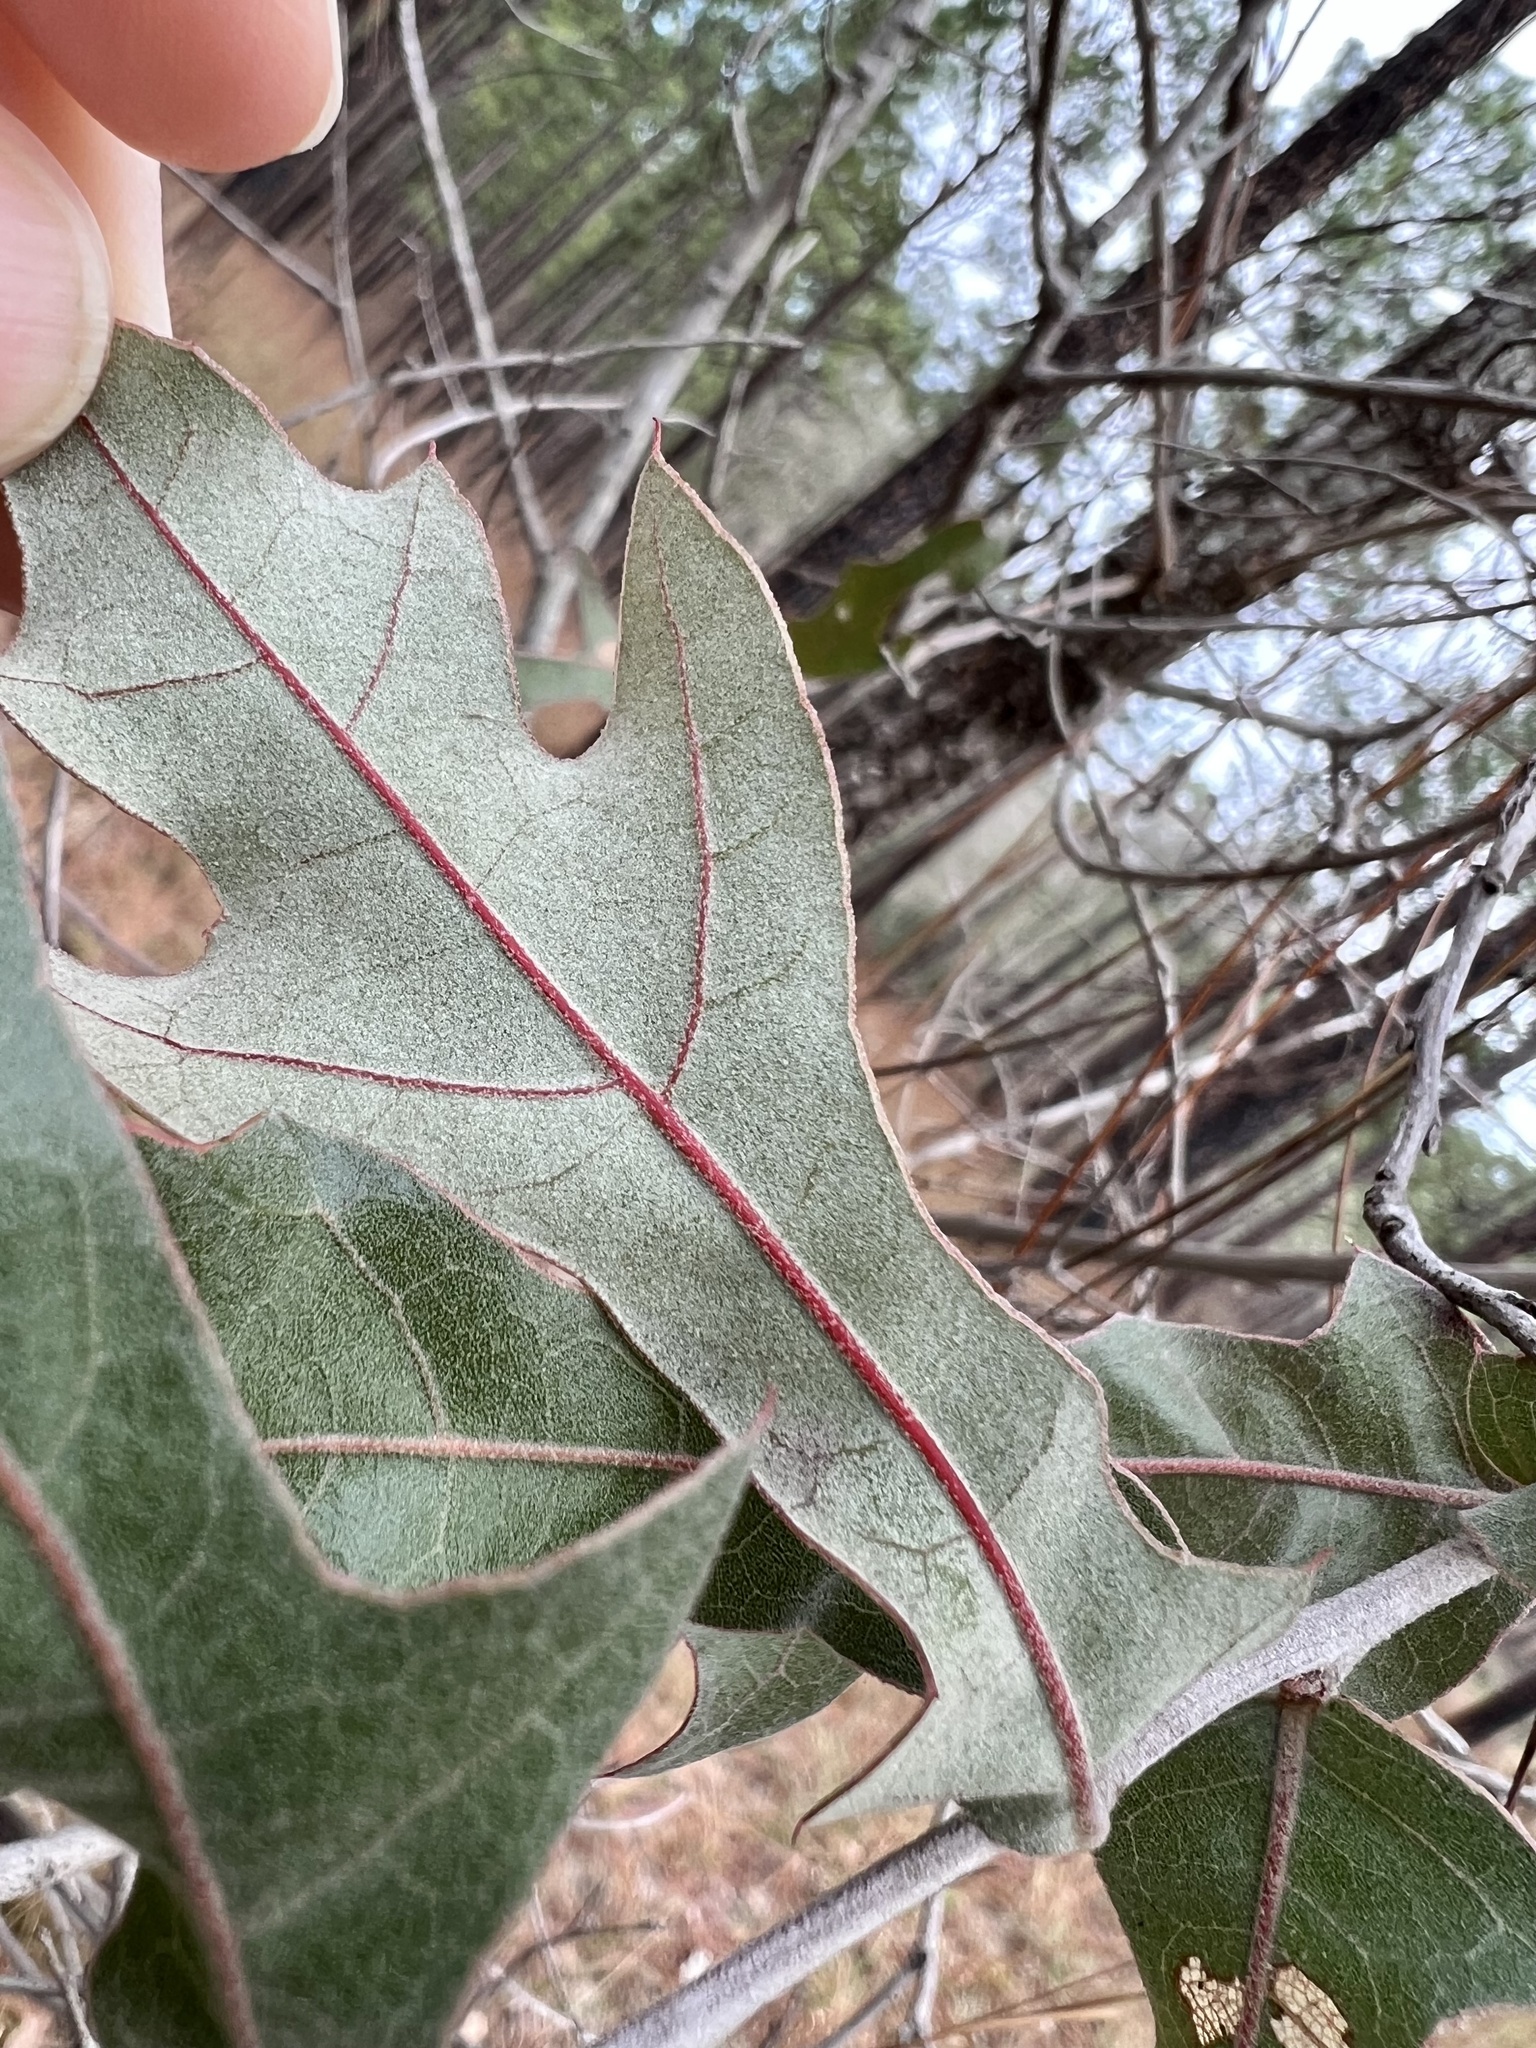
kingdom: Plantae
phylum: Tracheophyta
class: Magnoliopsida
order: Fagales
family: Fagaceae
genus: Quercus
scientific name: Quercus incana
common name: Bluejack oak
